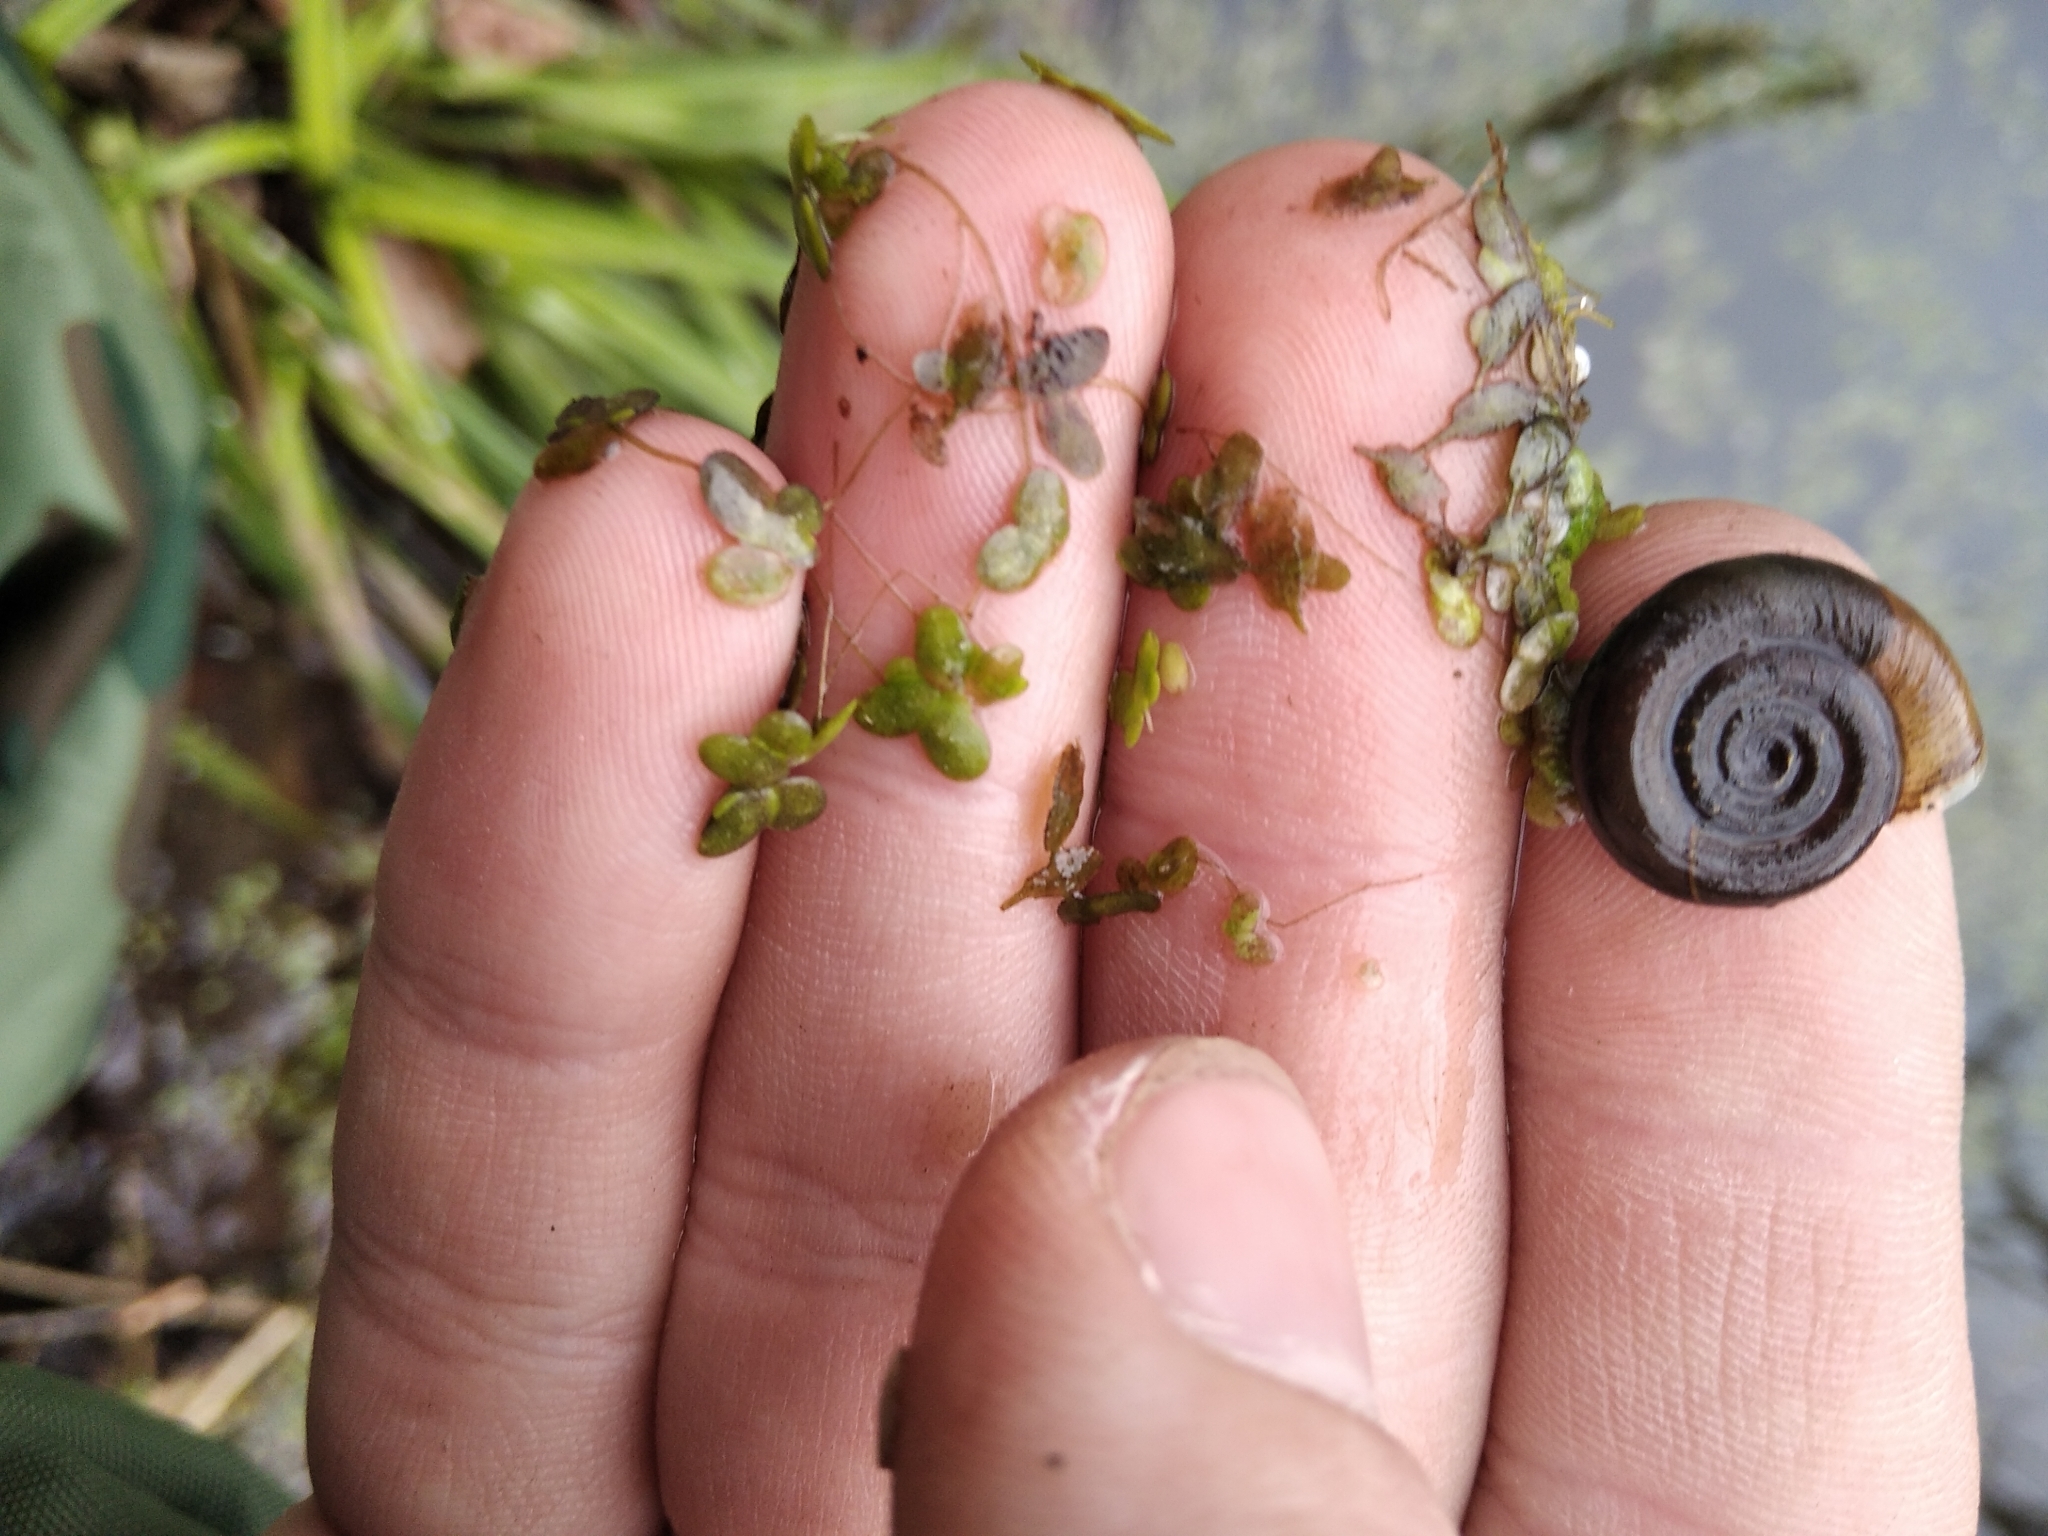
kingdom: Animalia
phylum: Mollusca
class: Gastropoda
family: Planorbidae
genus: Planorbis
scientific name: Planorbis planorbis
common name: Margined ramshorn
